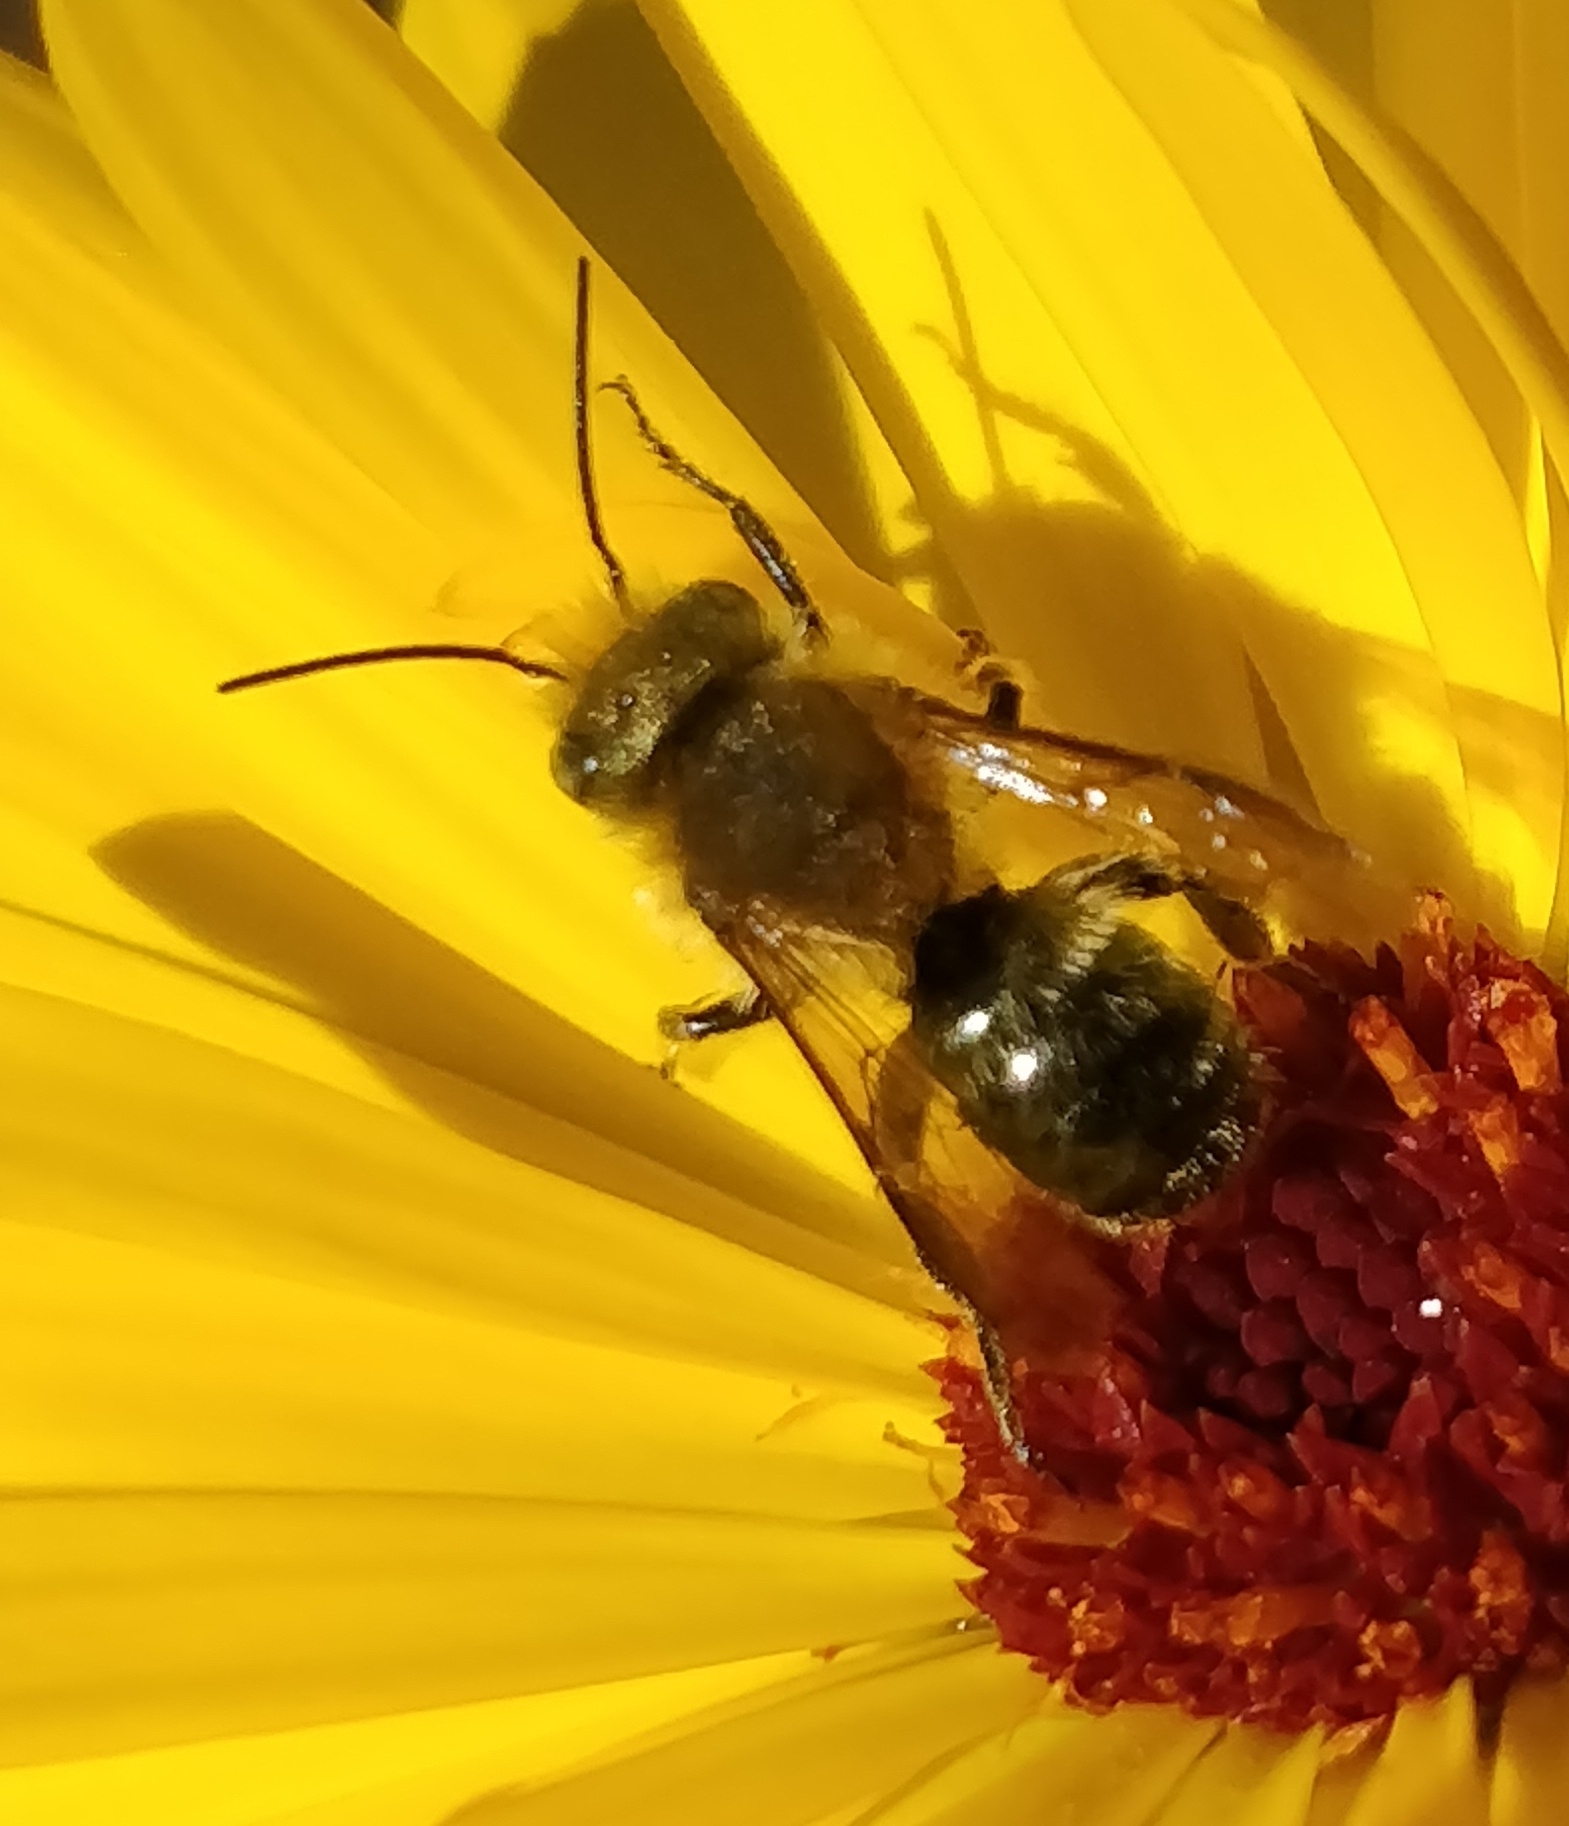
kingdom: Animalia
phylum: Arthropoda
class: Insecta
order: Hymenoptera
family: Megachilidae
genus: Osmia
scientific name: Osmia latreillei
